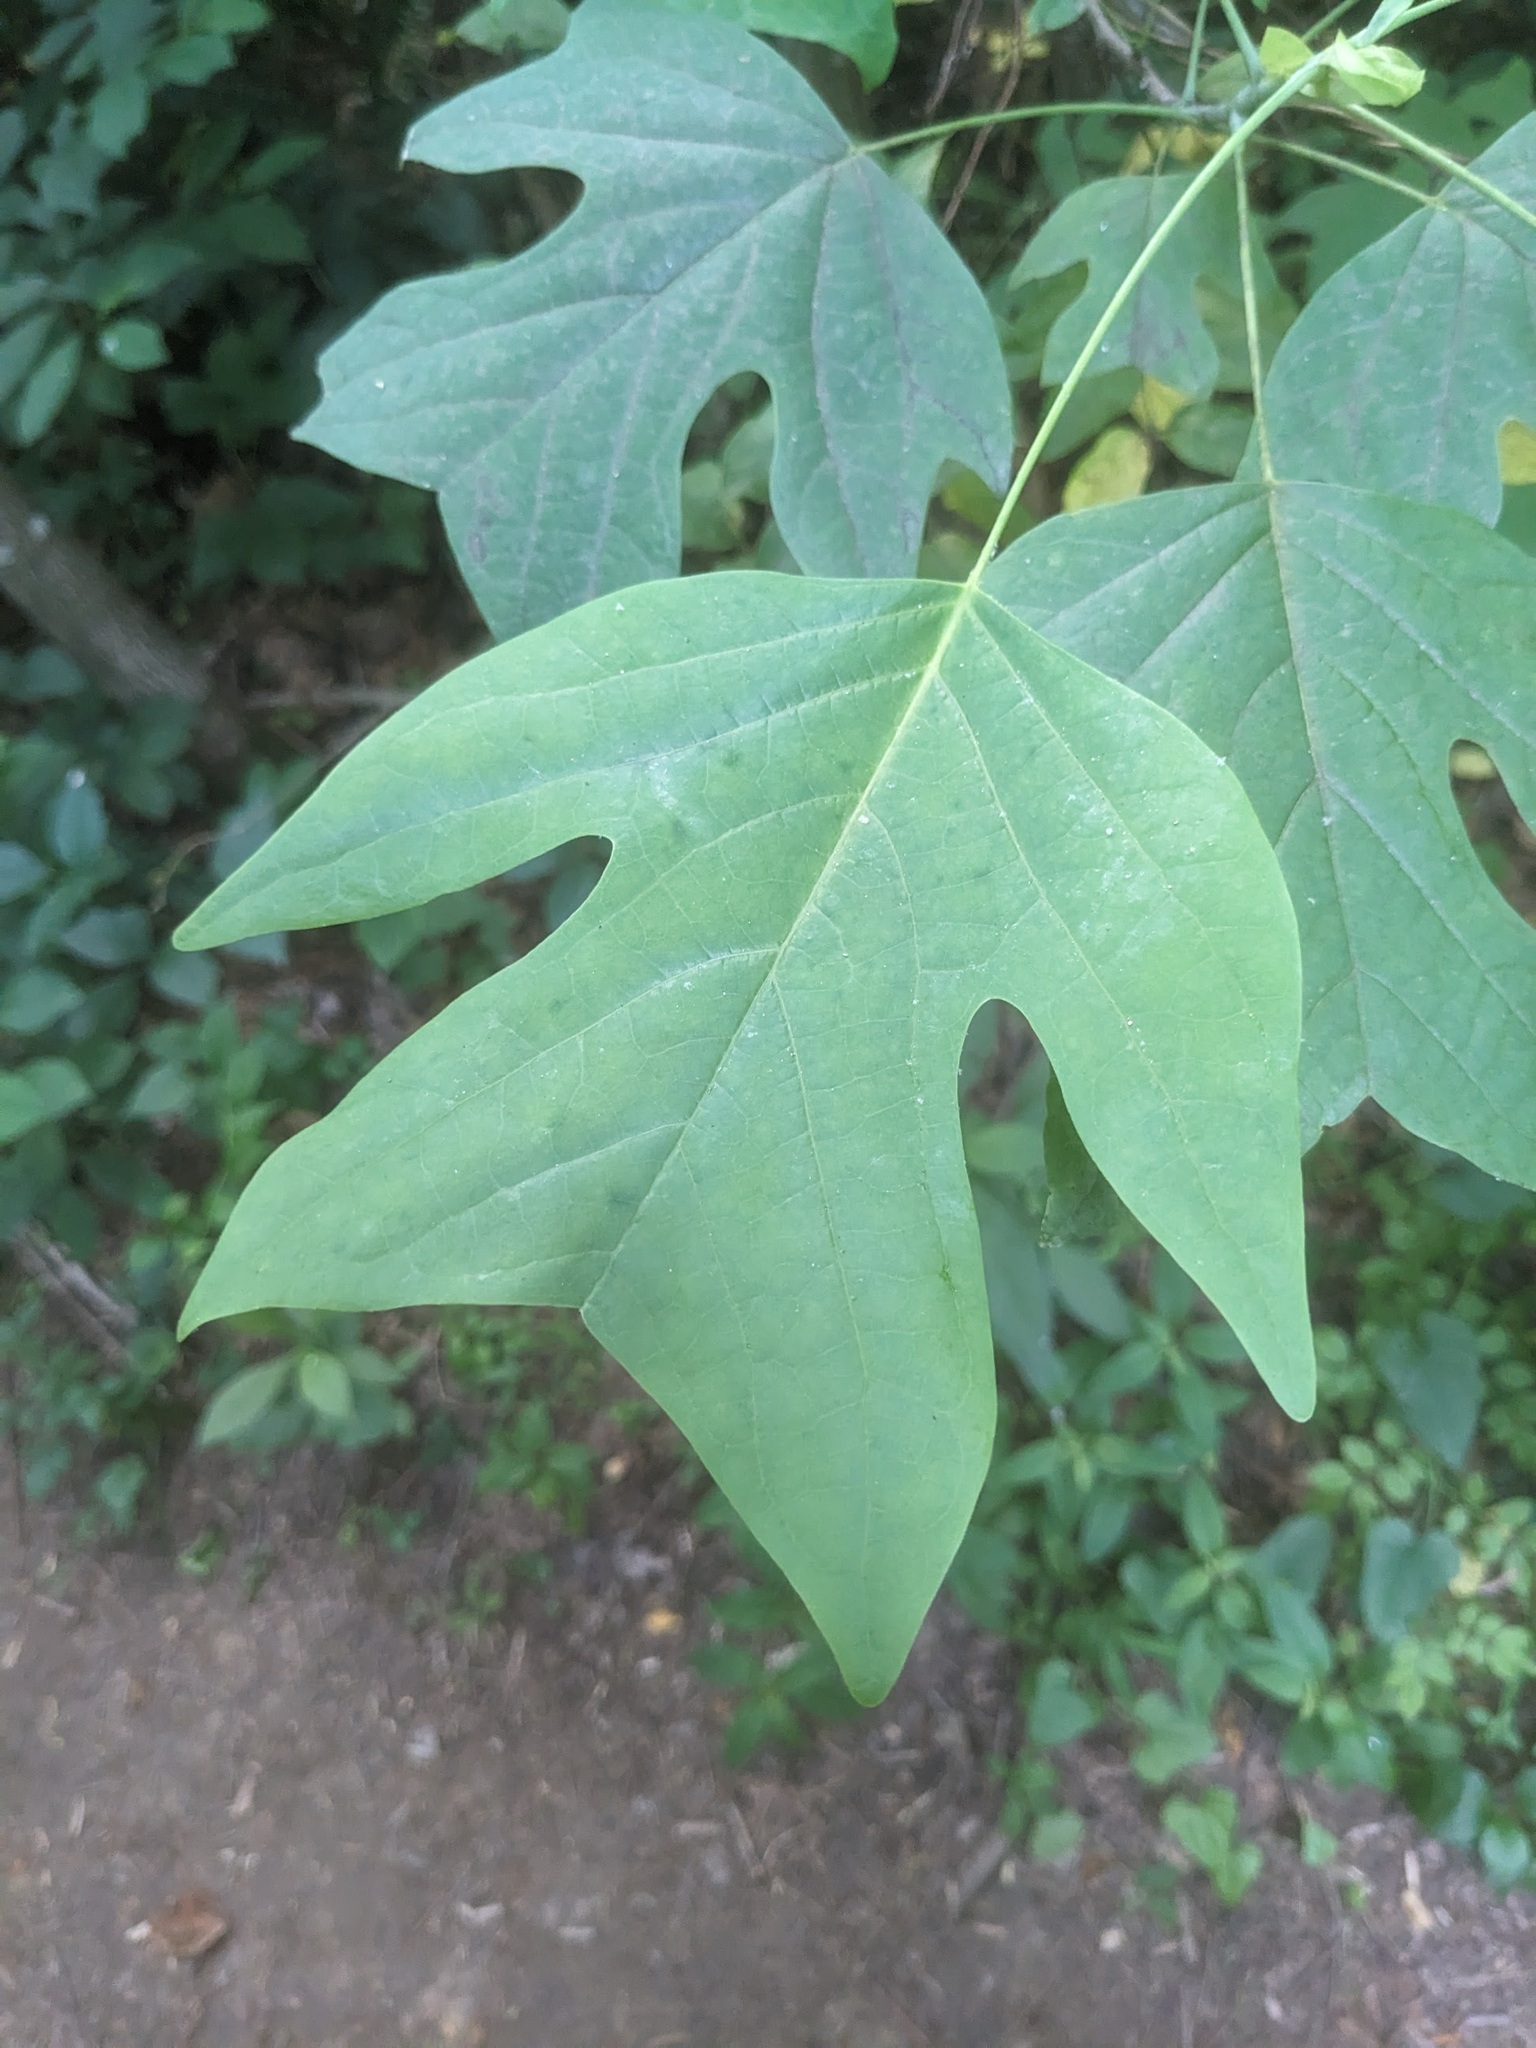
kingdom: Plantae
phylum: Tracheophyta
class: Magnoliopsida
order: Magnoliales
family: Magnoliaceae
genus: Liriodendron
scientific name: Liriodendron tulipifera
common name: Tulip tree
